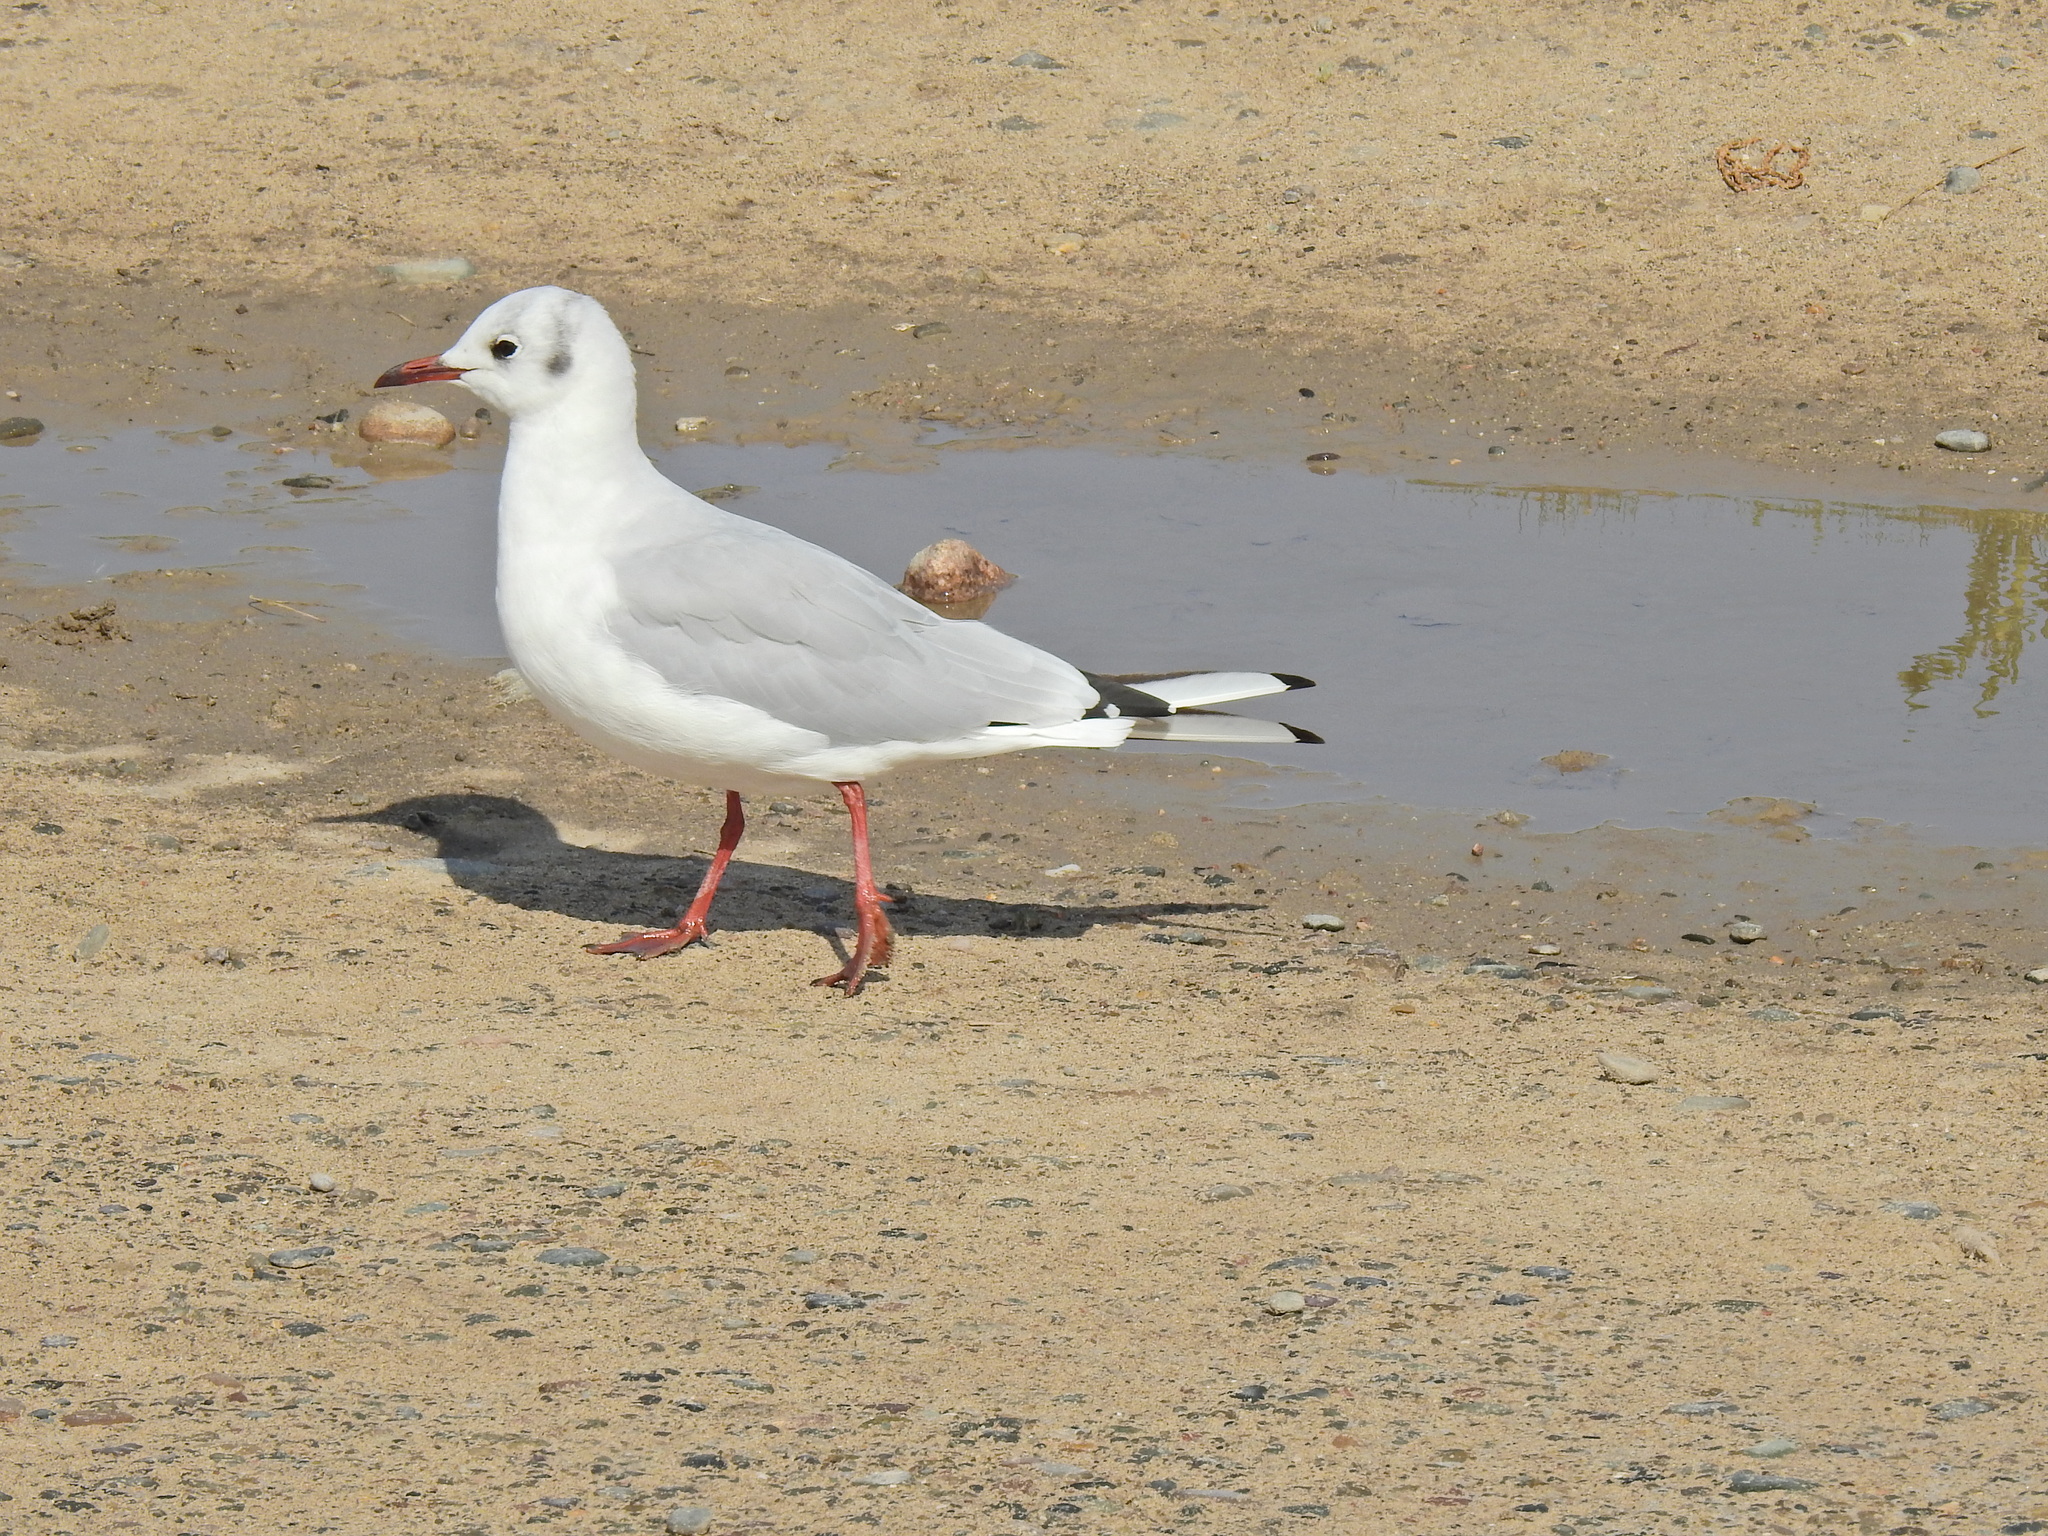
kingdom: Animalia
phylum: Chordata
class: Aves
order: Charadriiformes
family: Laridae
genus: Chroicocephalus
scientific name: Chroicocephalus ridibundus
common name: Black-headed gull
